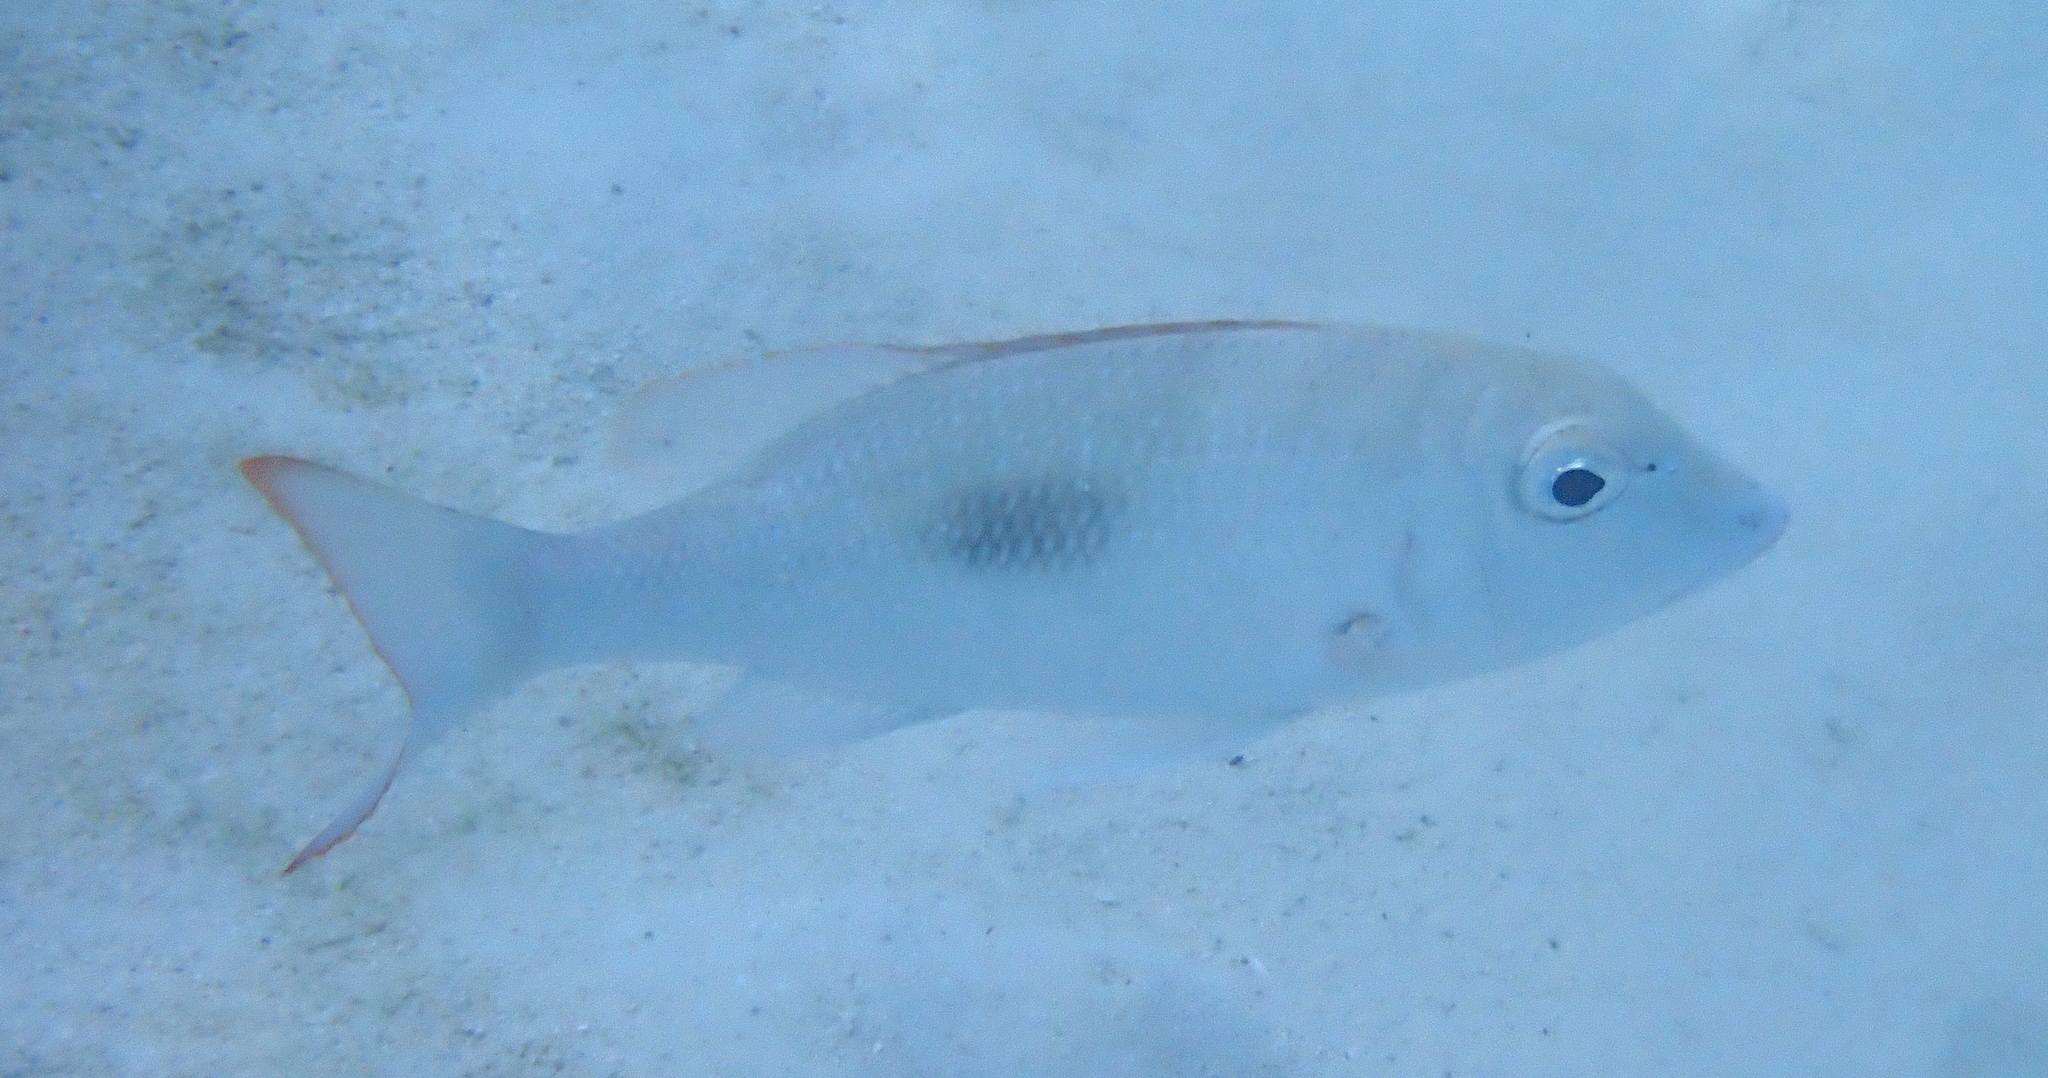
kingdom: Animalia
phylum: Chordata
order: Perciformes
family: Lethrinidae
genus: Lethrinus
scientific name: Lethrinus harak
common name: Blackspot emperor
